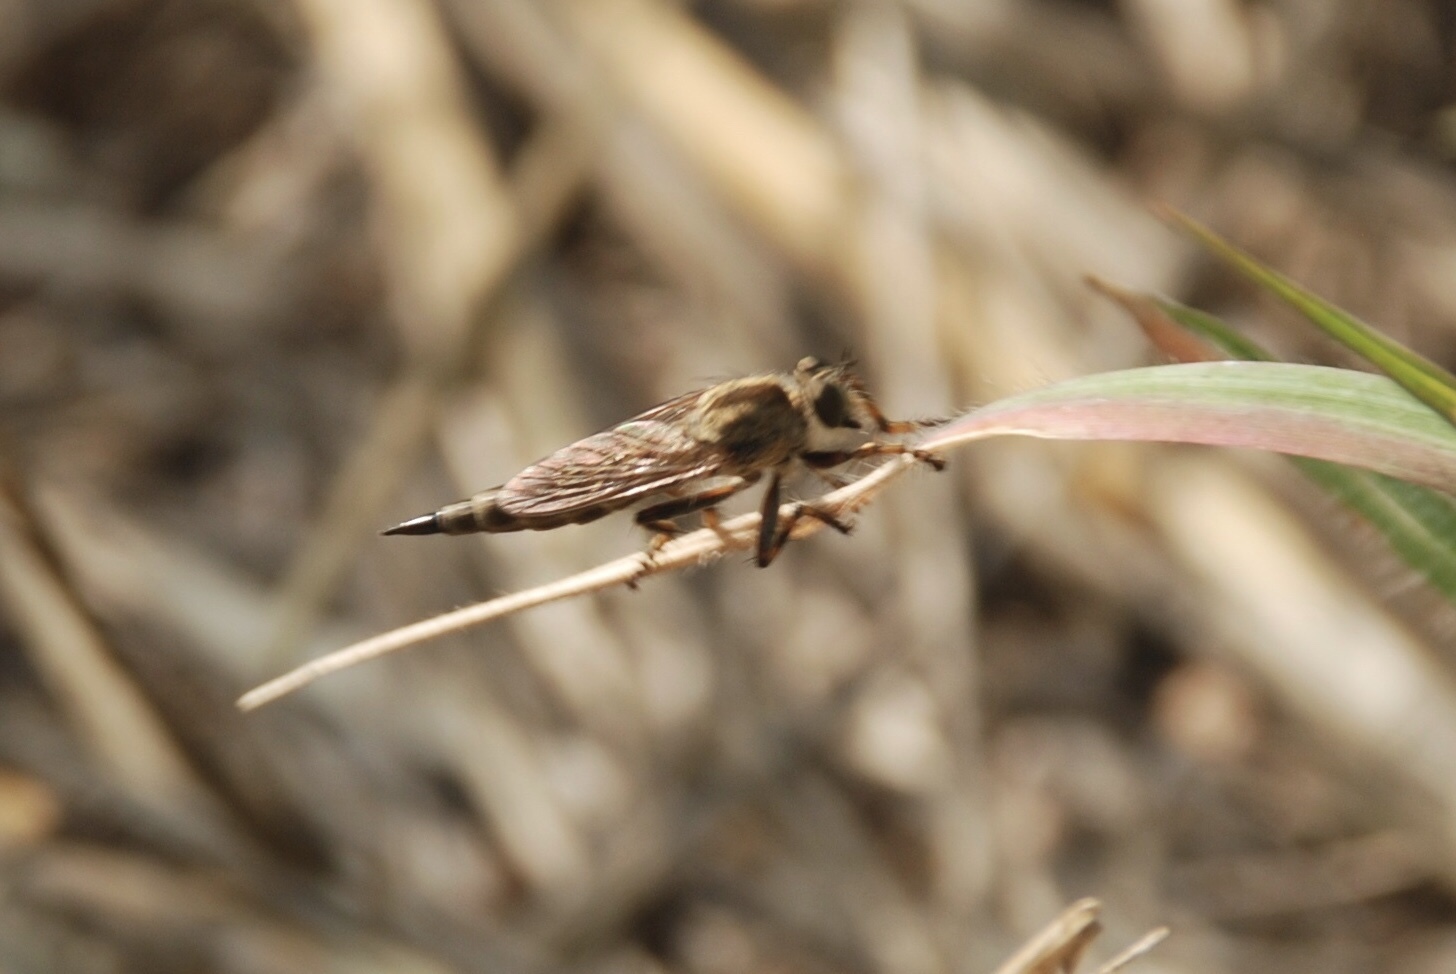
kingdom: Animalia
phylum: Arthropoda
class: Insecta
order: Diptera
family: Asilidae
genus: Epitriptus
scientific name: Epitriptus cingulatus
